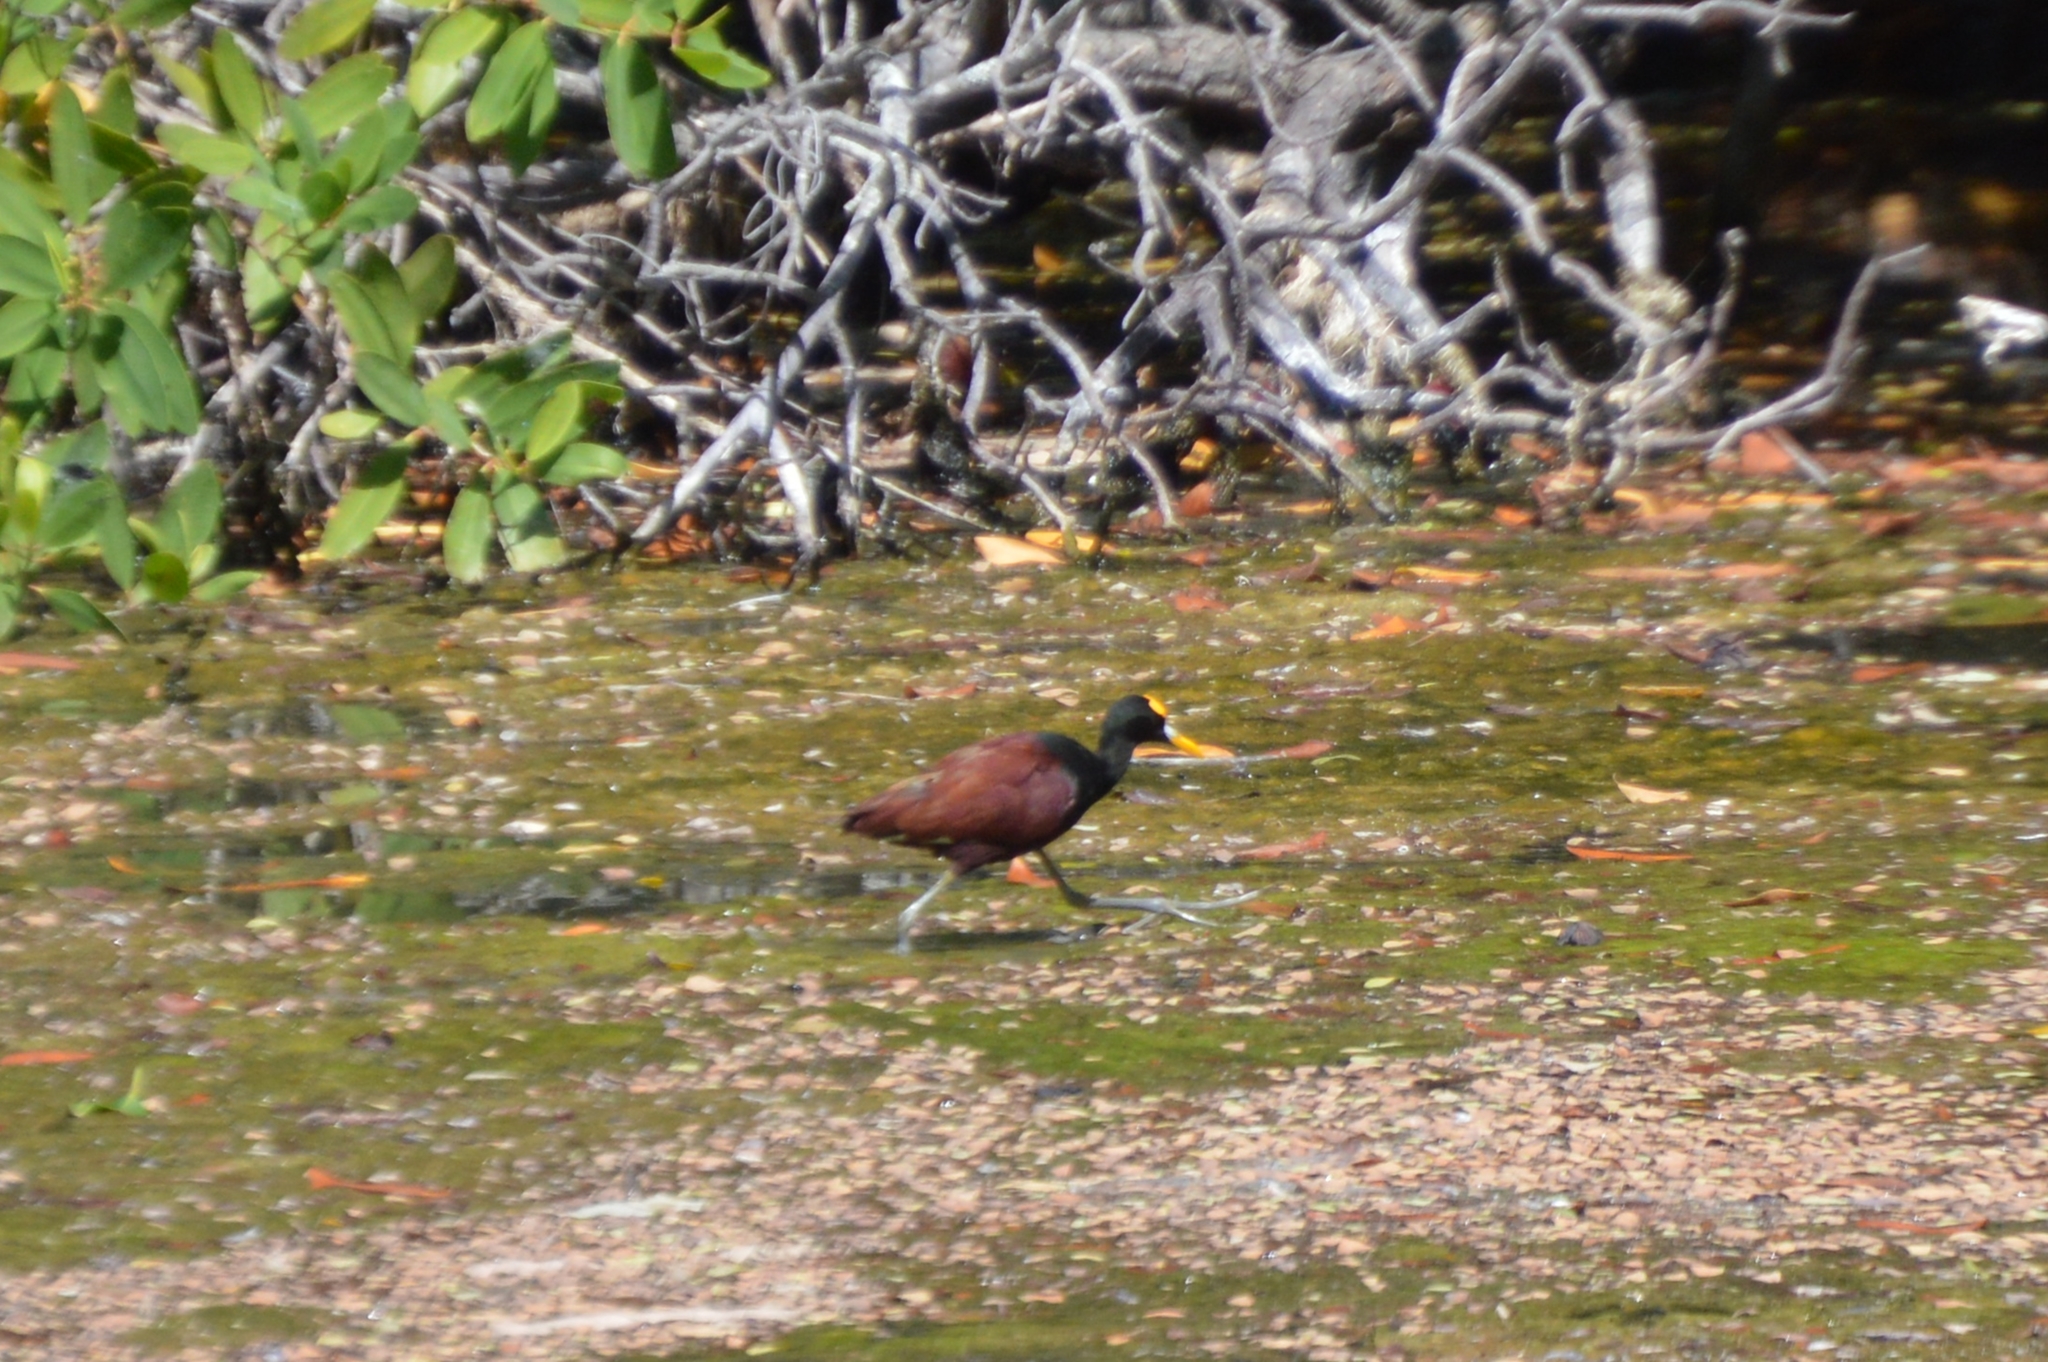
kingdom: Animalia
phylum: Chordata
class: Aves
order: Charadriiformes
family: Jacanidae
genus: Jacana
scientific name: Jacana spinosa
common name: Northern jacana
